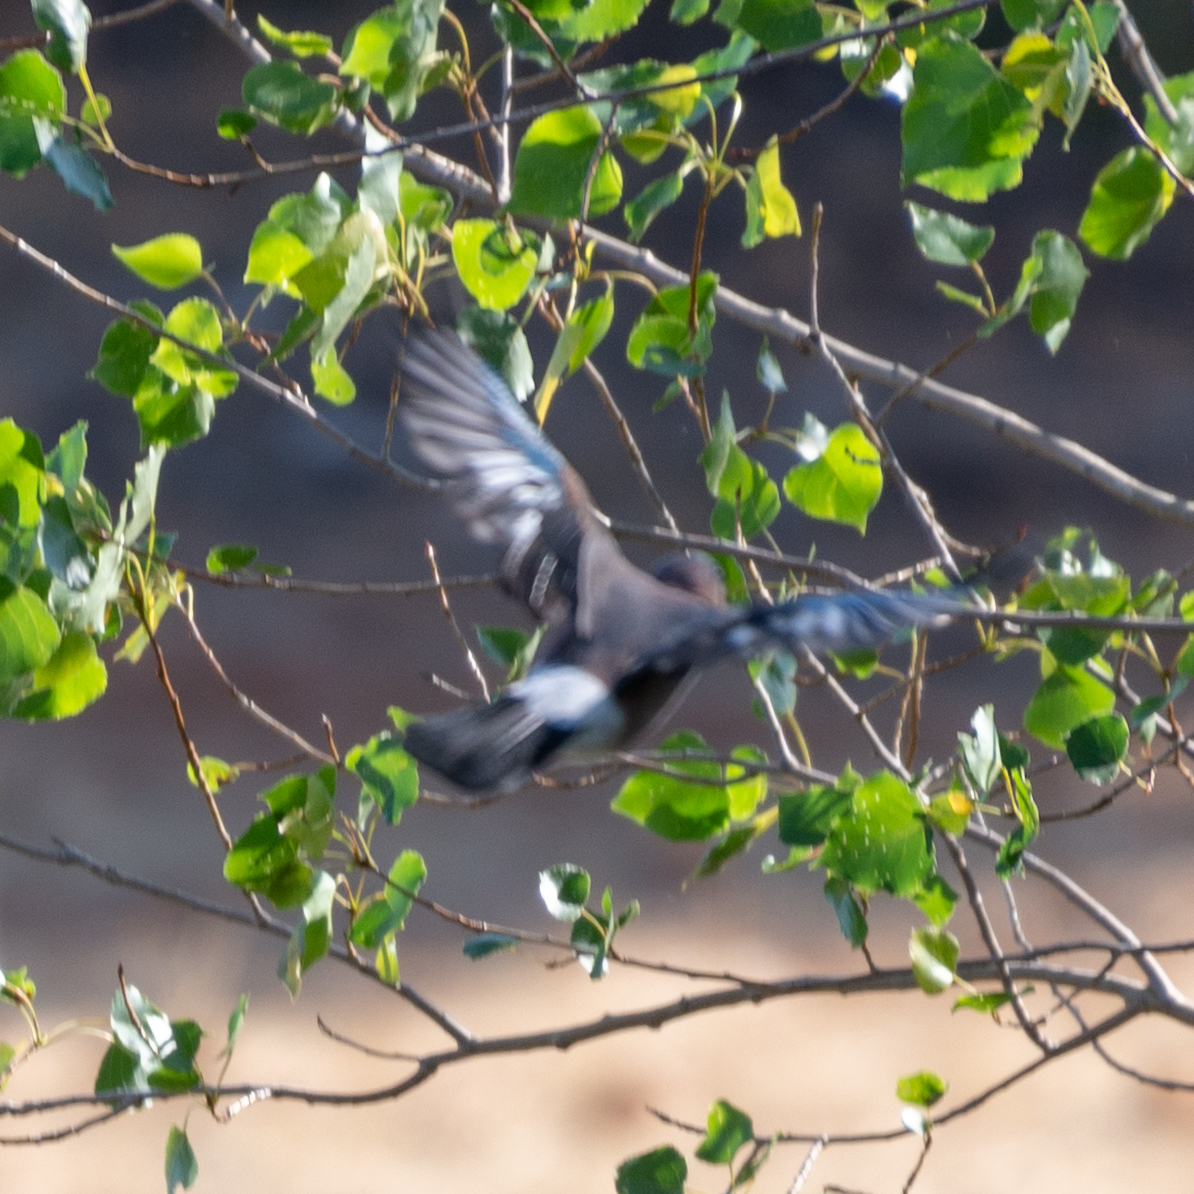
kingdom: Animalia
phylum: Chordata
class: Aves
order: Passeriformes
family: Corvidae
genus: Garrulus
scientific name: Garrulus glandarius
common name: Eurasian jay
